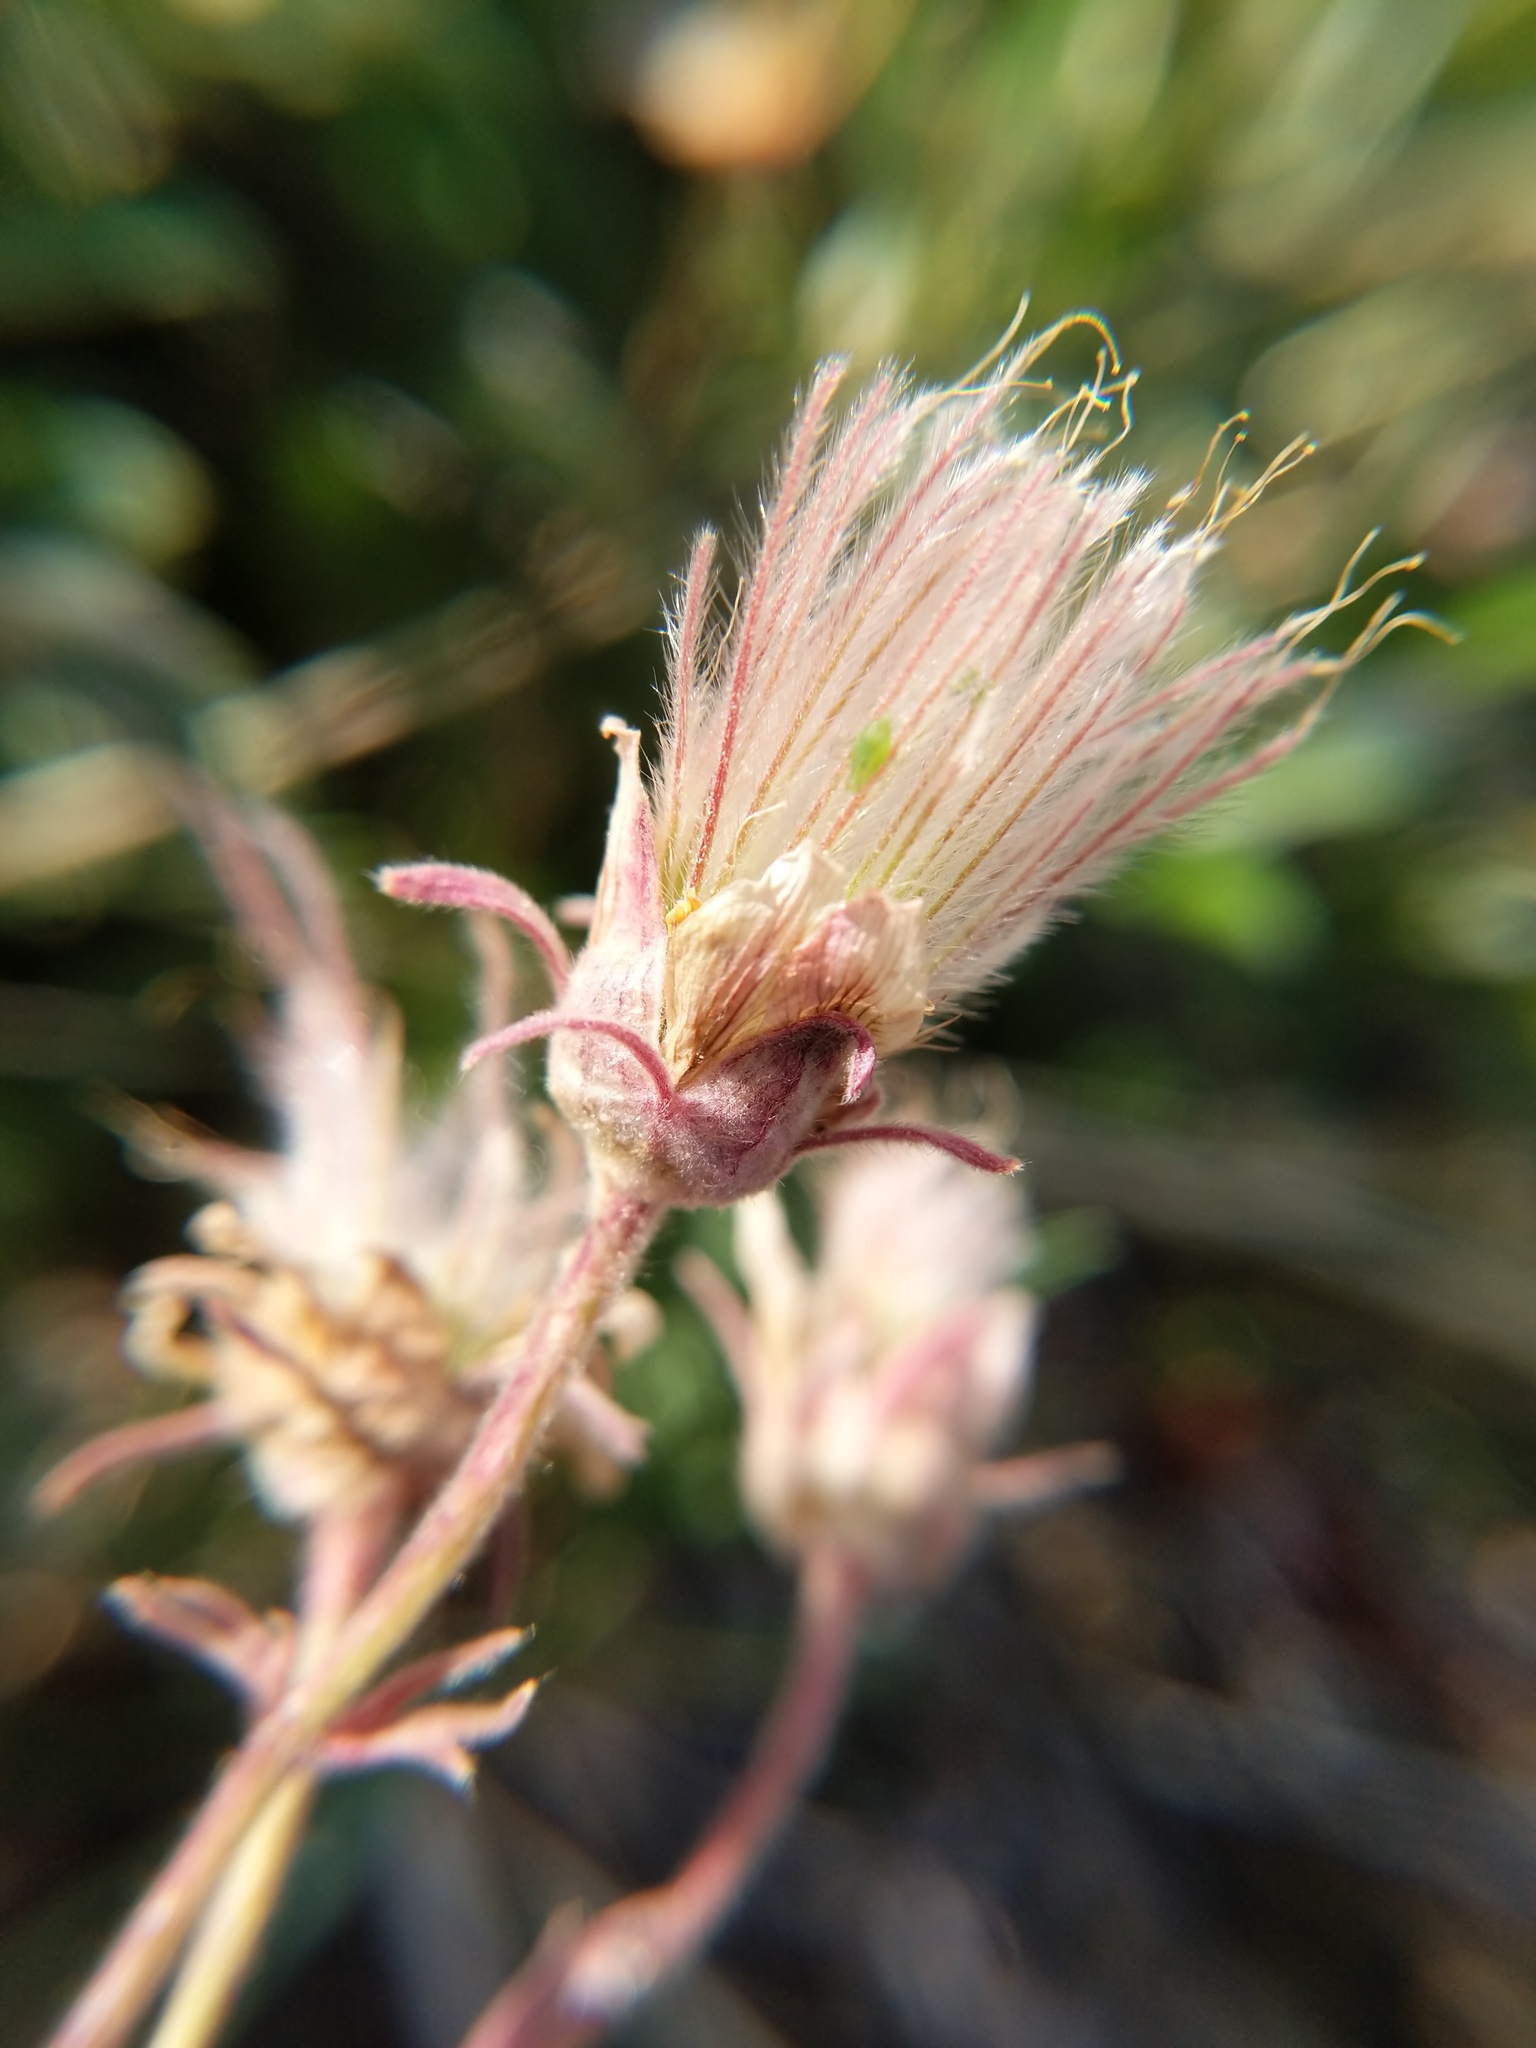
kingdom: Plantae
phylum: Tracheophyta
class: Magnoliopsida
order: Rosales
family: Rosaceae
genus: Geum
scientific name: Geum triflorum
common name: Old man's whiskers
